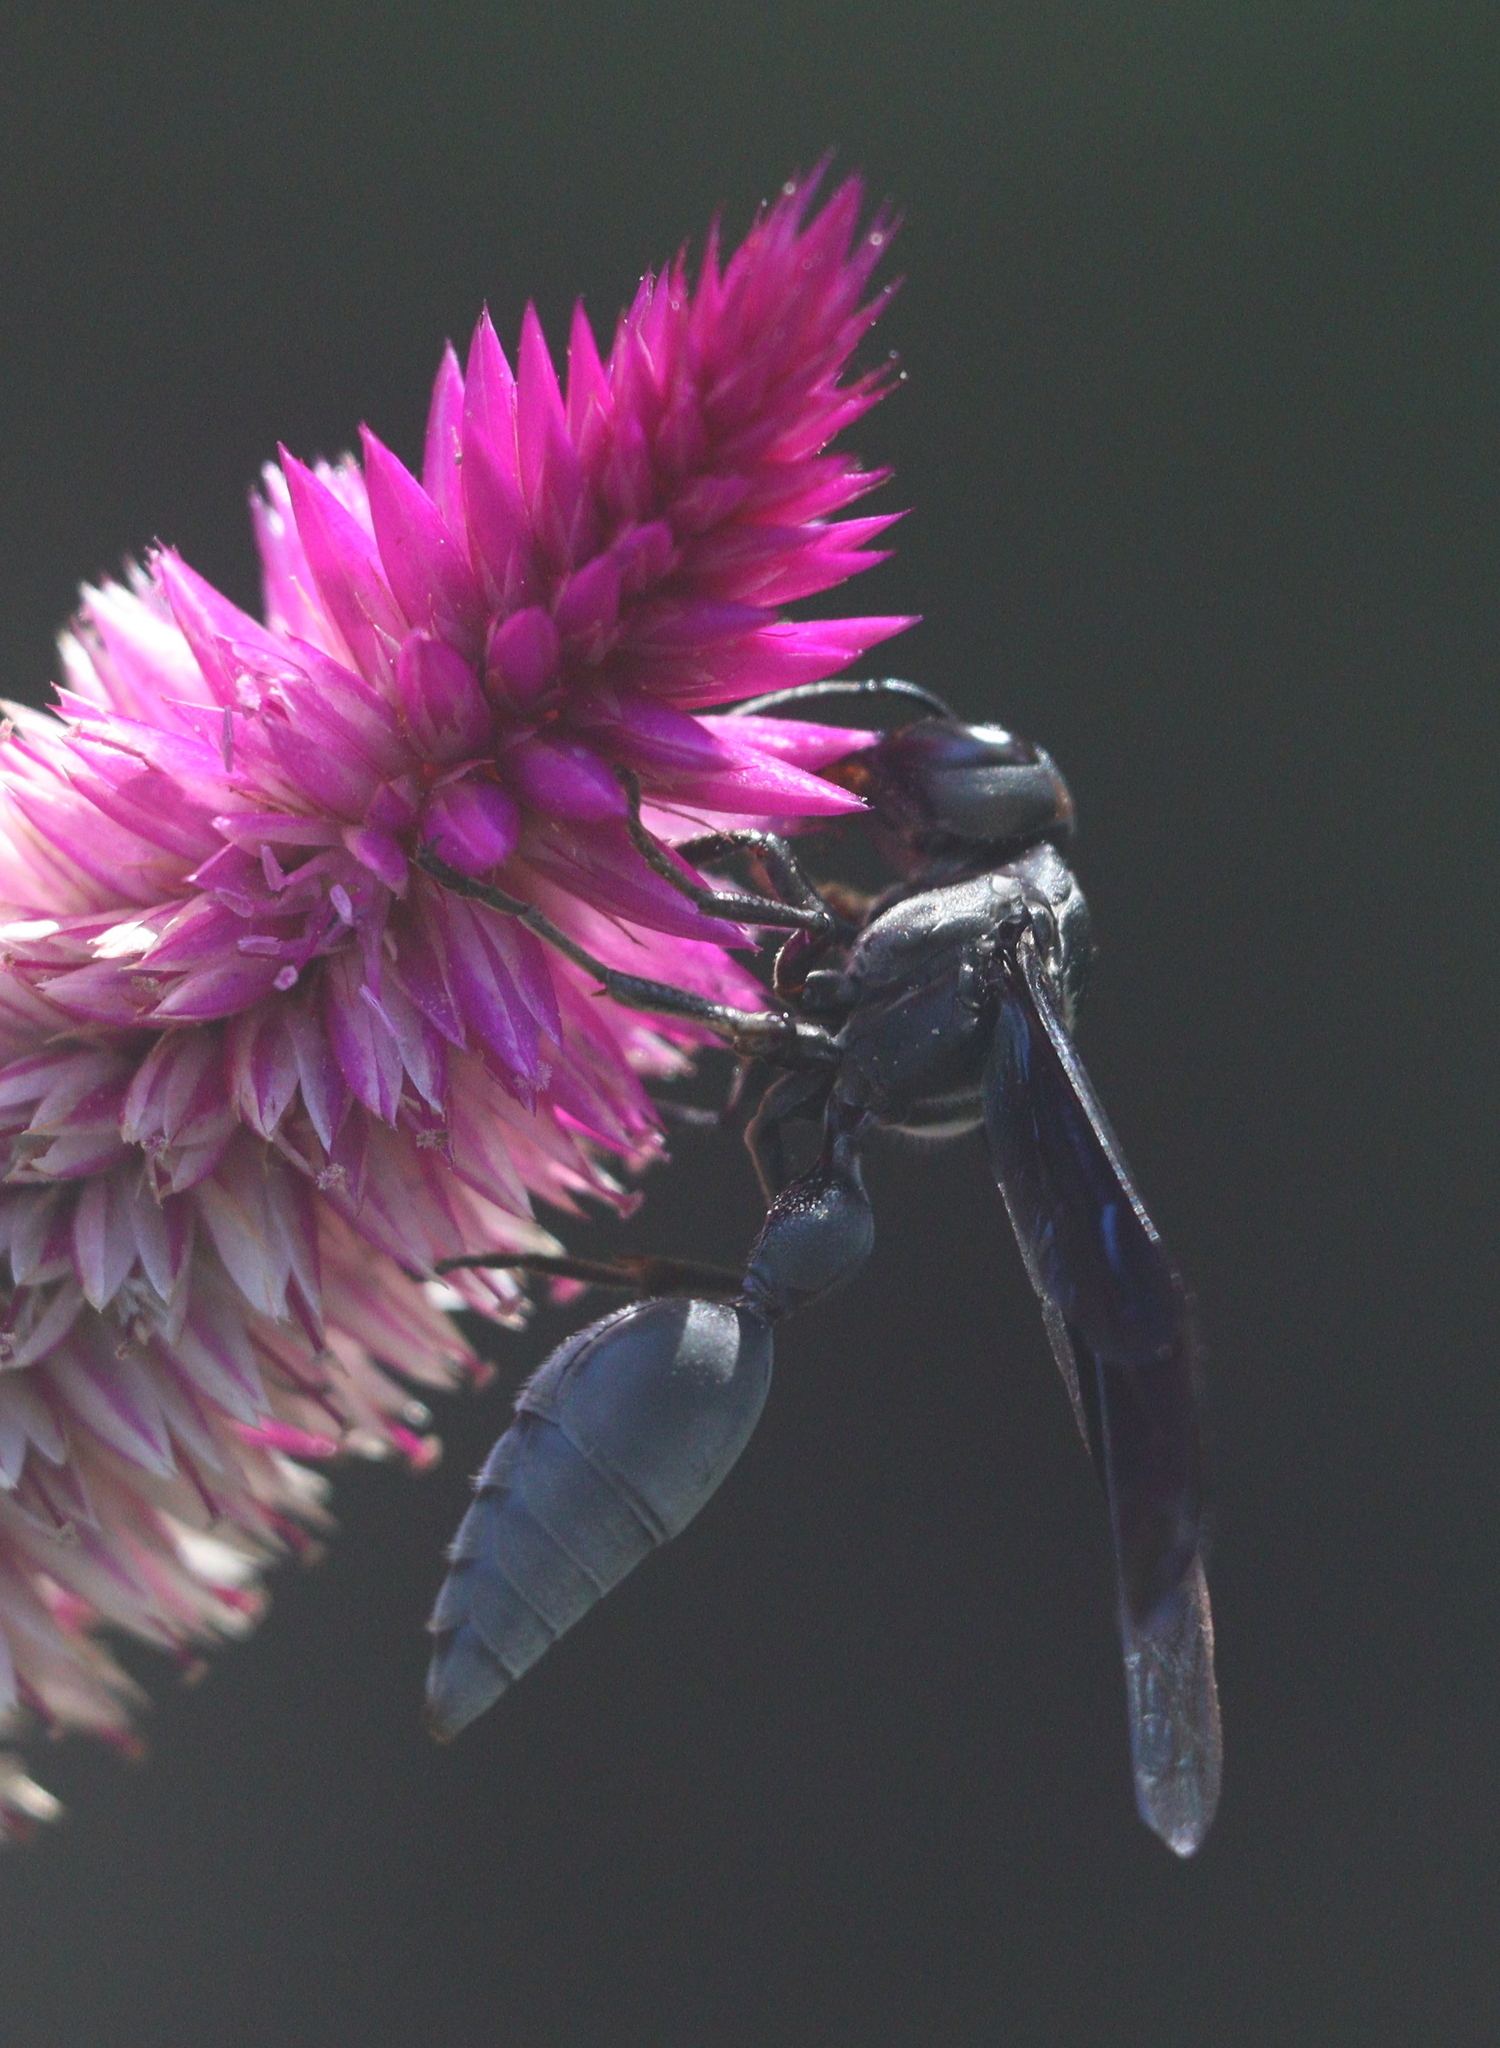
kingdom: Animalia
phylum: Arthropoda
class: Insecta
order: Hymenoptera
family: Eumenidae
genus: Zethus
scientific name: Zethus brasiliensis
